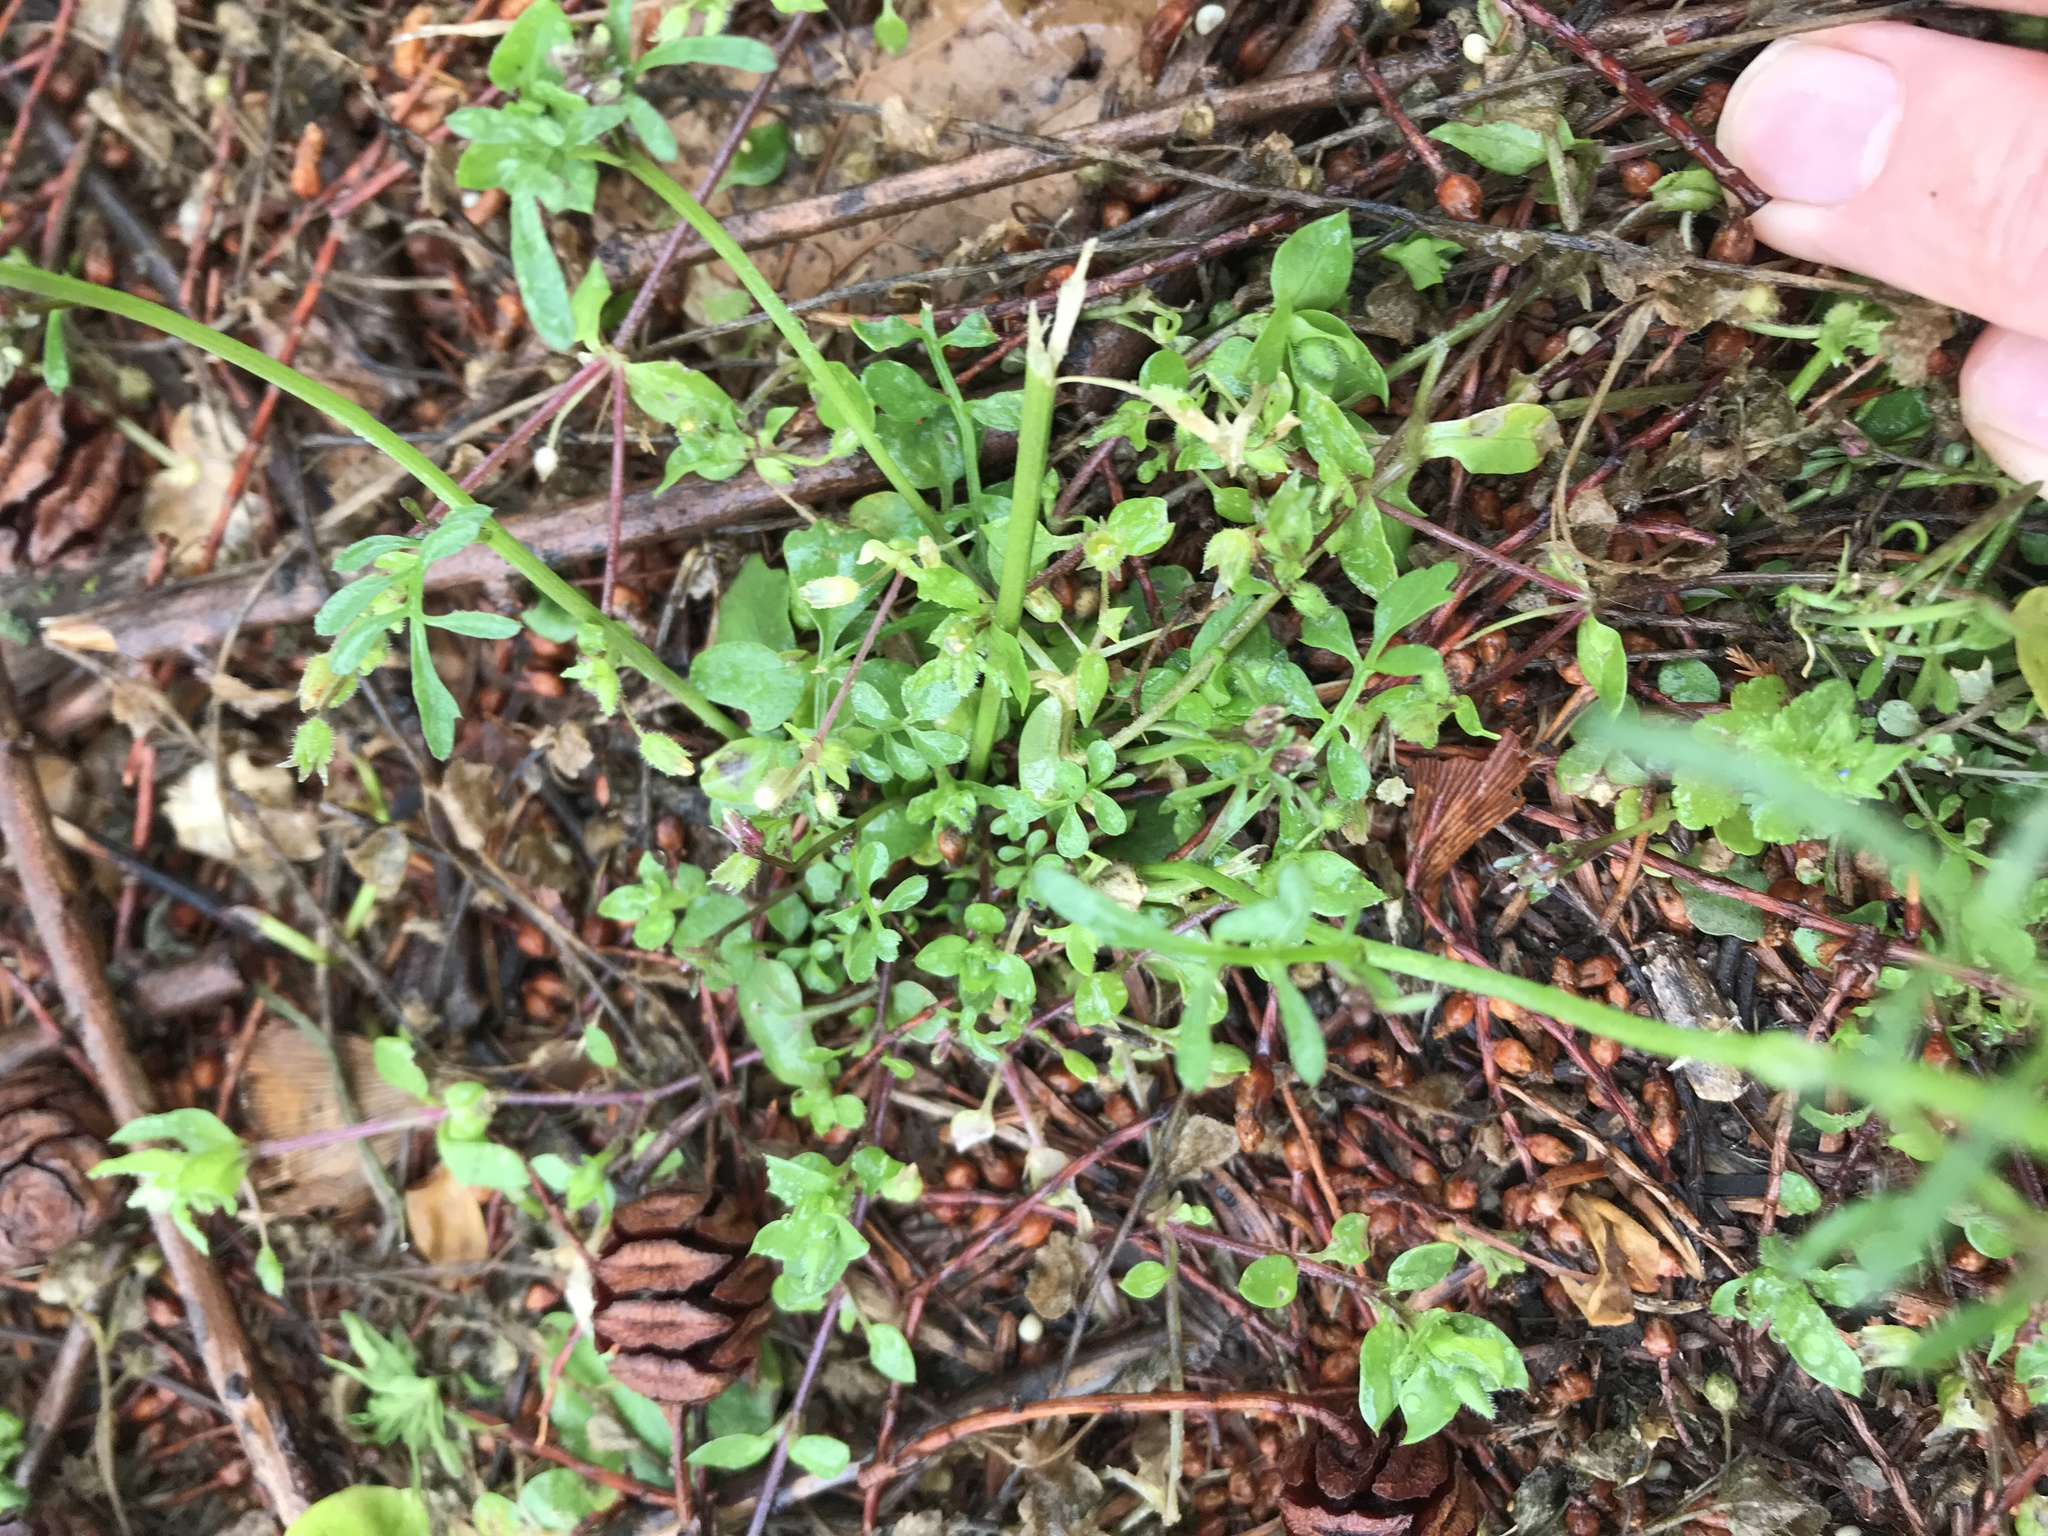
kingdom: Plantae
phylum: Tracheophyta
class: Magnoliopsida
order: Brassicales
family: Brassicaceae
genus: Cardamine
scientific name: Cardamine hirsuta
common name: Hairy bittercress
